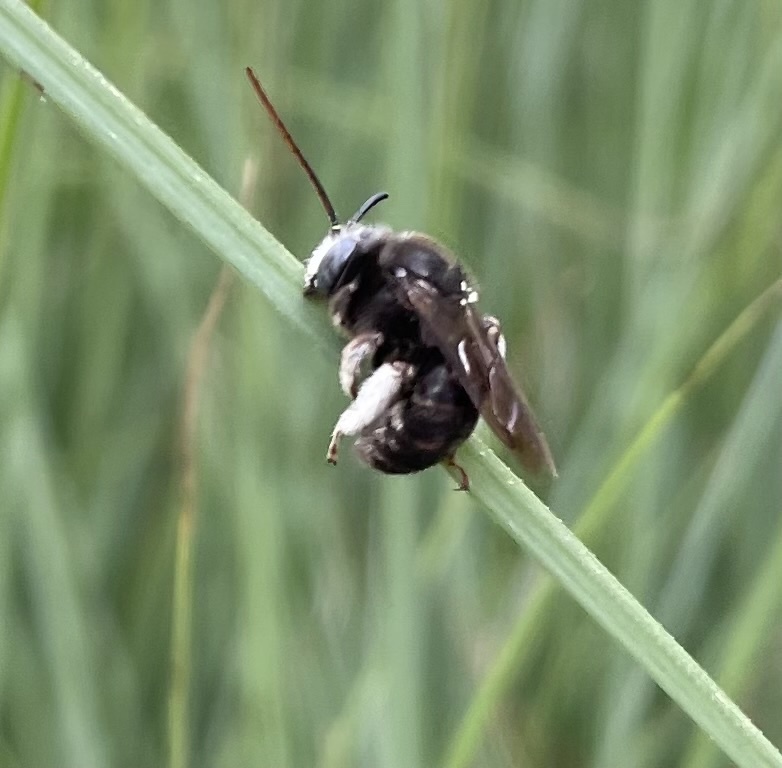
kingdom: Animalia
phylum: Arthropoda
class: Insecta
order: Hymenoptera
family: Apidae
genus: Melissodes
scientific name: Melissodes bimaculatus
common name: Two-spotted long-horned bee
